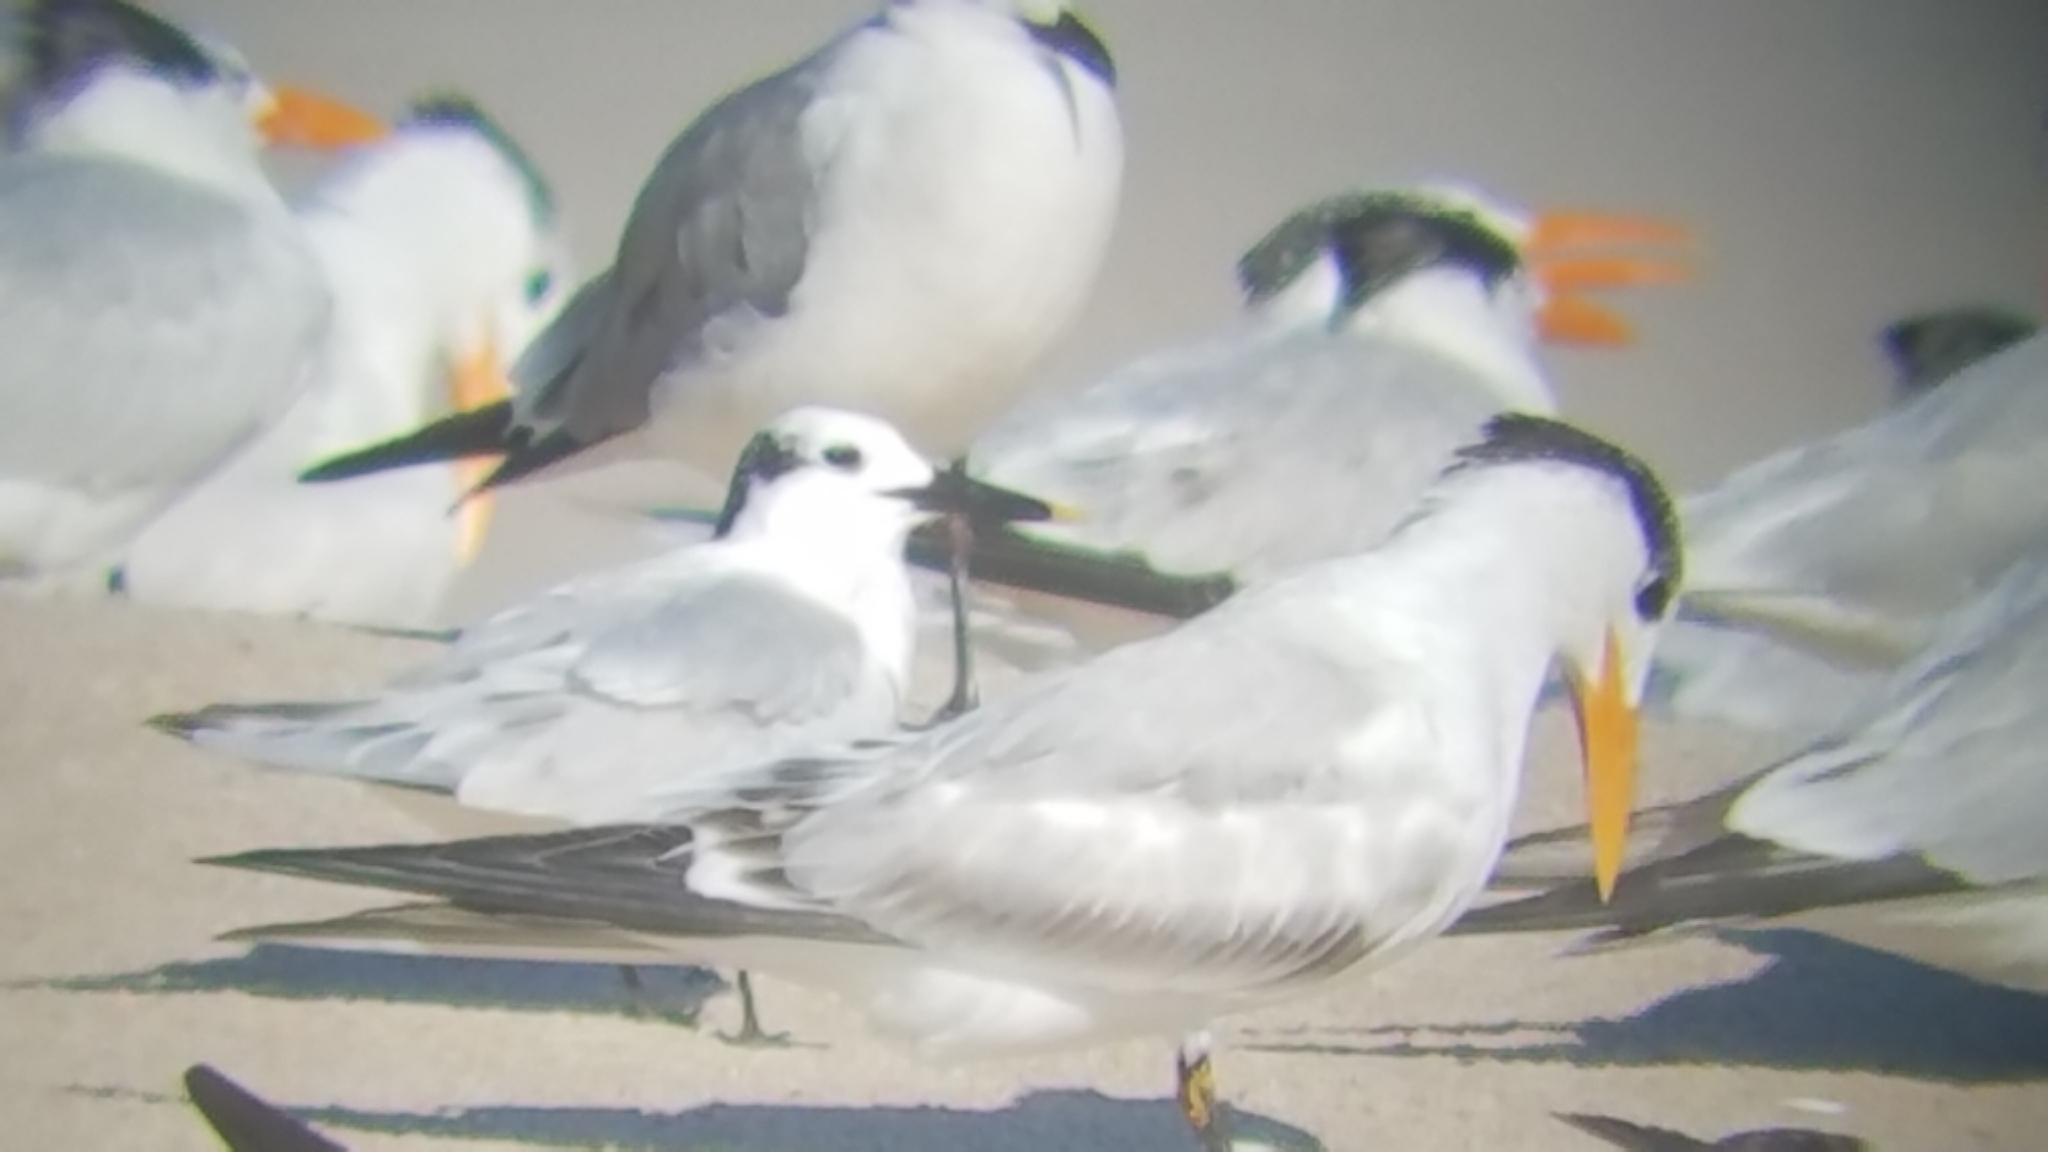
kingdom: Animalia
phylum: Chordata
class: Aves
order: Charadriiformes
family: Laridae
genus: Thalasseus
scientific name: Thalasseus sandvicensis
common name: Sandwich tern
